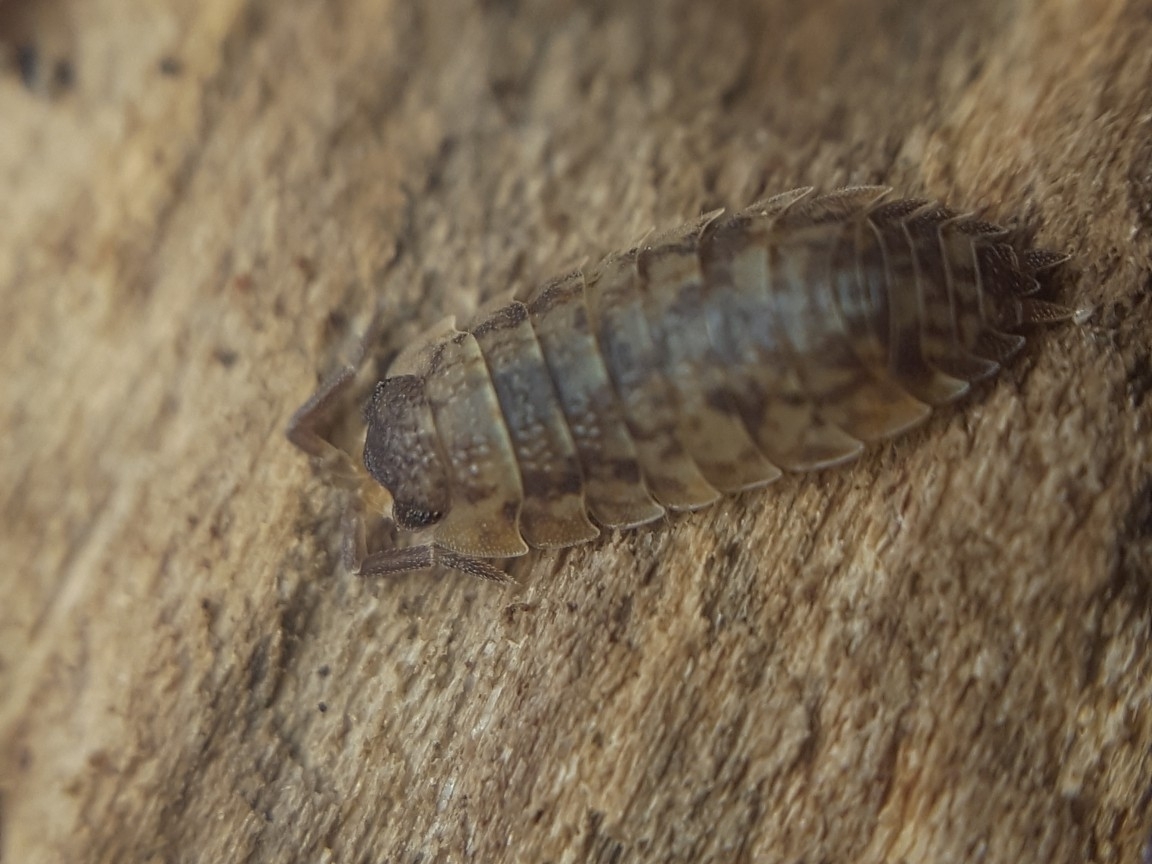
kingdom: Animalia
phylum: Arthropoda
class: Malacostraca
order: Isopoda
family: Porcellionidae
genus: Porcellio
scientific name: Porcellio scaber
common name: Common rough woodlouse
